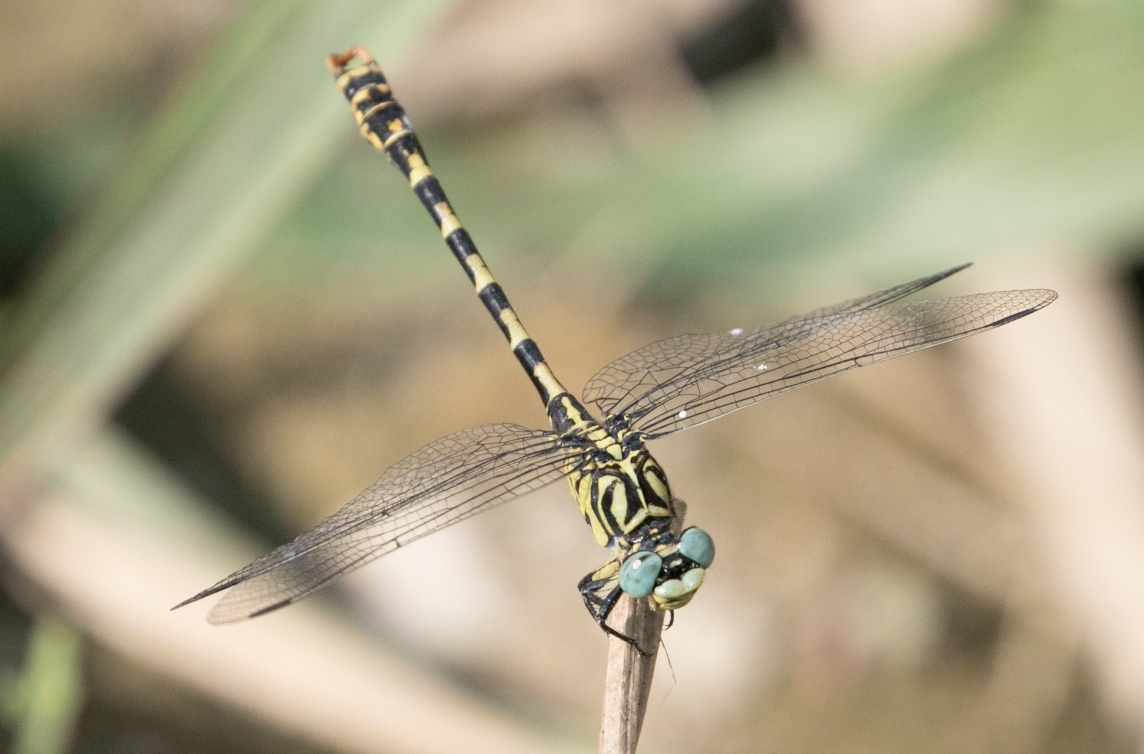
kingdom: Animalia
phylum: Arthropoda
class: Insecta
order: Odonata
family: Gomphidae
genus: Onychogomphus
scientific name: Onychogomphus forcipatus
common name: Small pincertail
